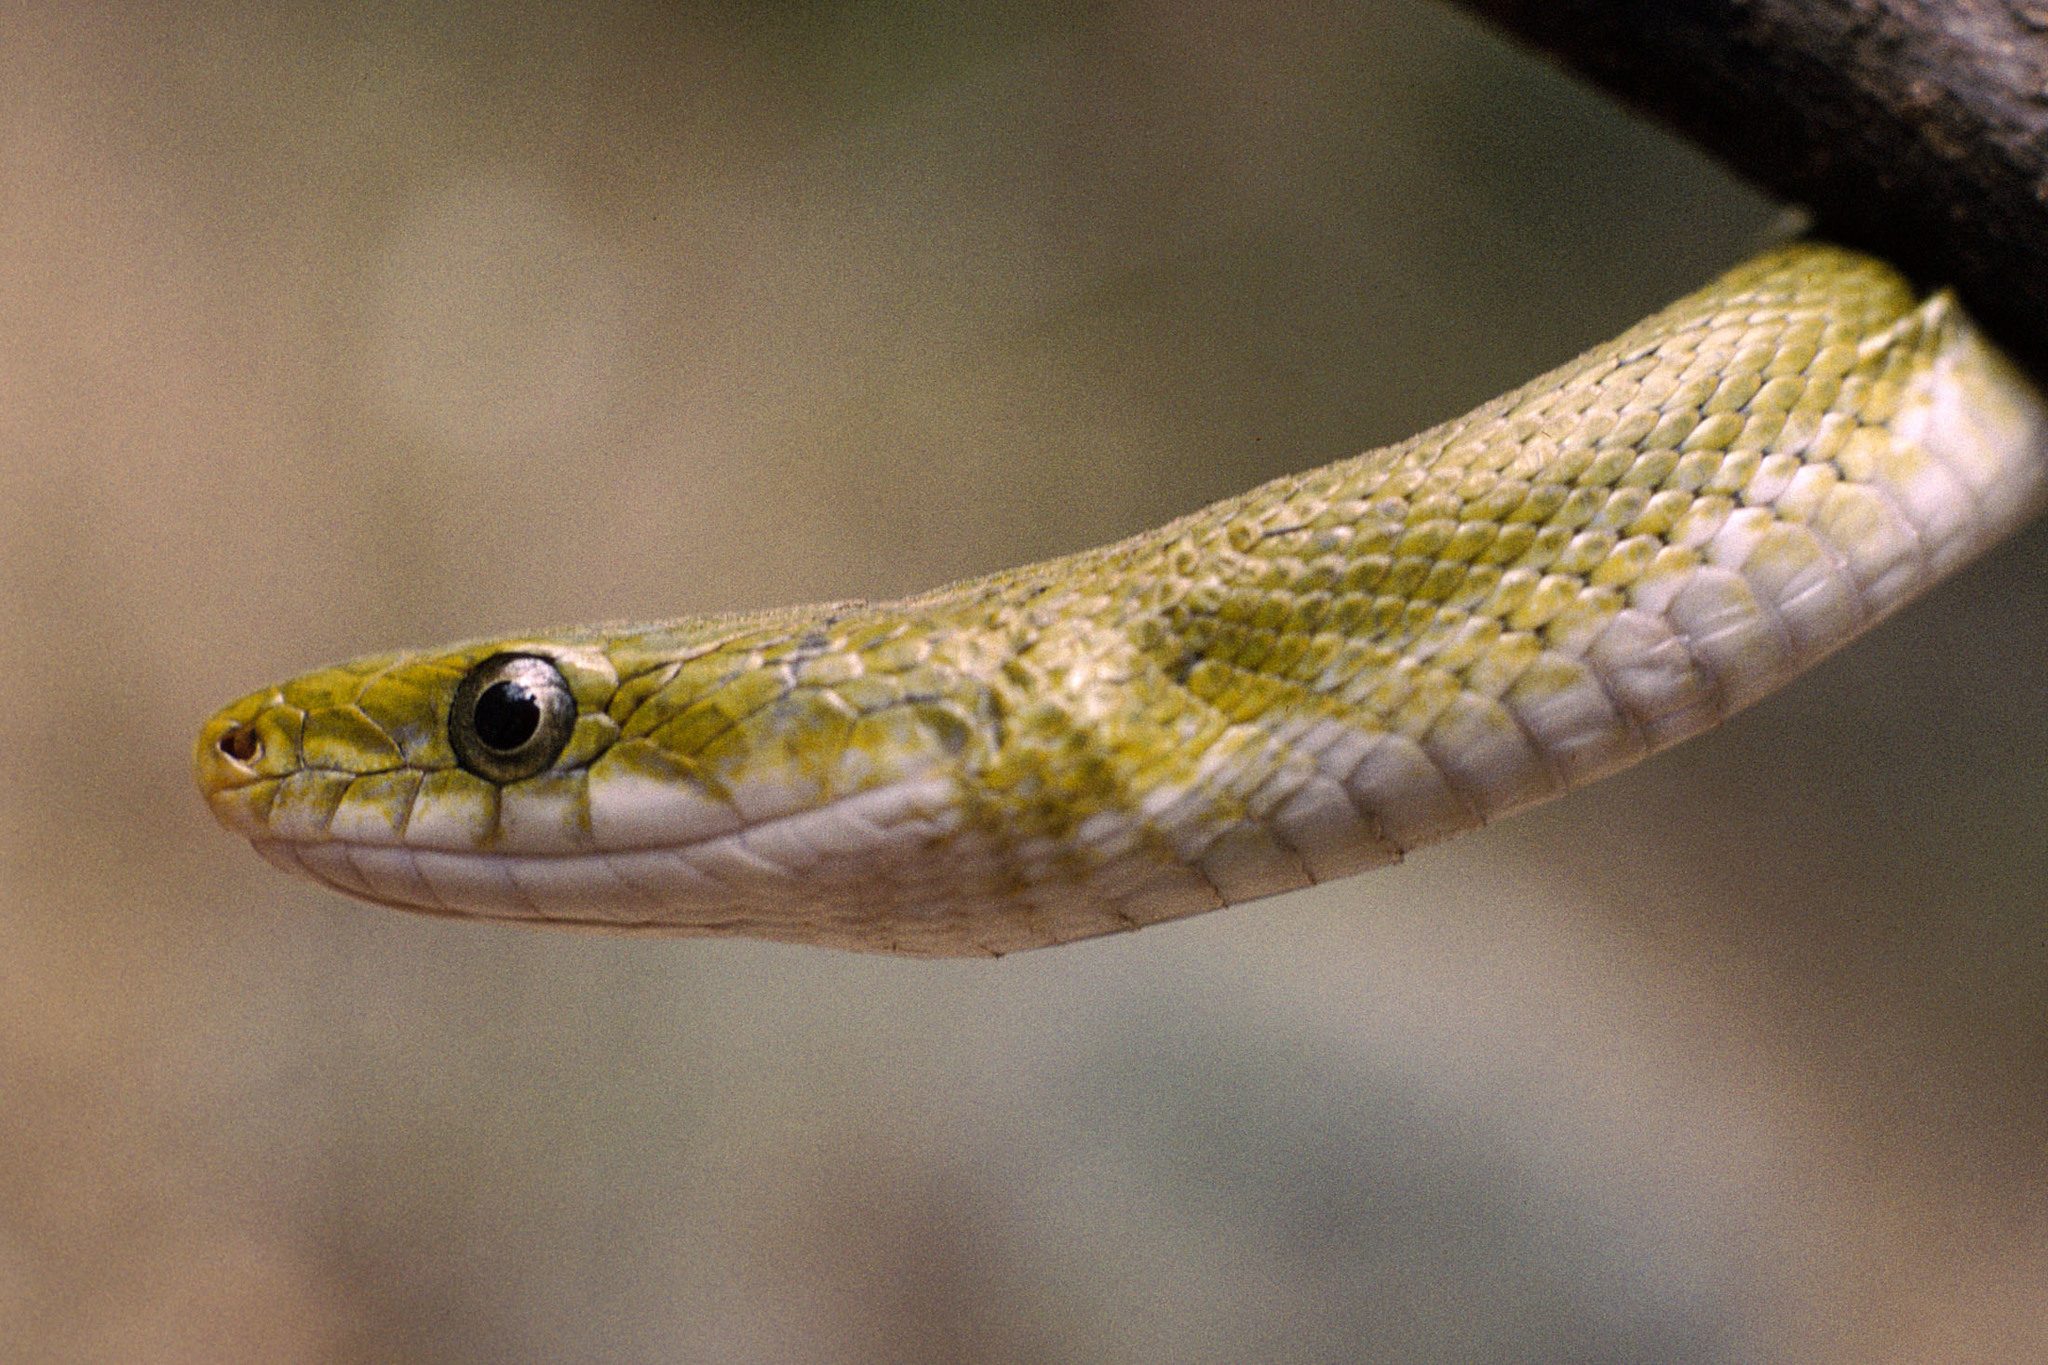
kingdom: Animalia
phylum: Chordata
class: Squamata
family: Colubridae
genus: Senticolis
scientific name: Senticolis triaspis
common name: Green rat snake
